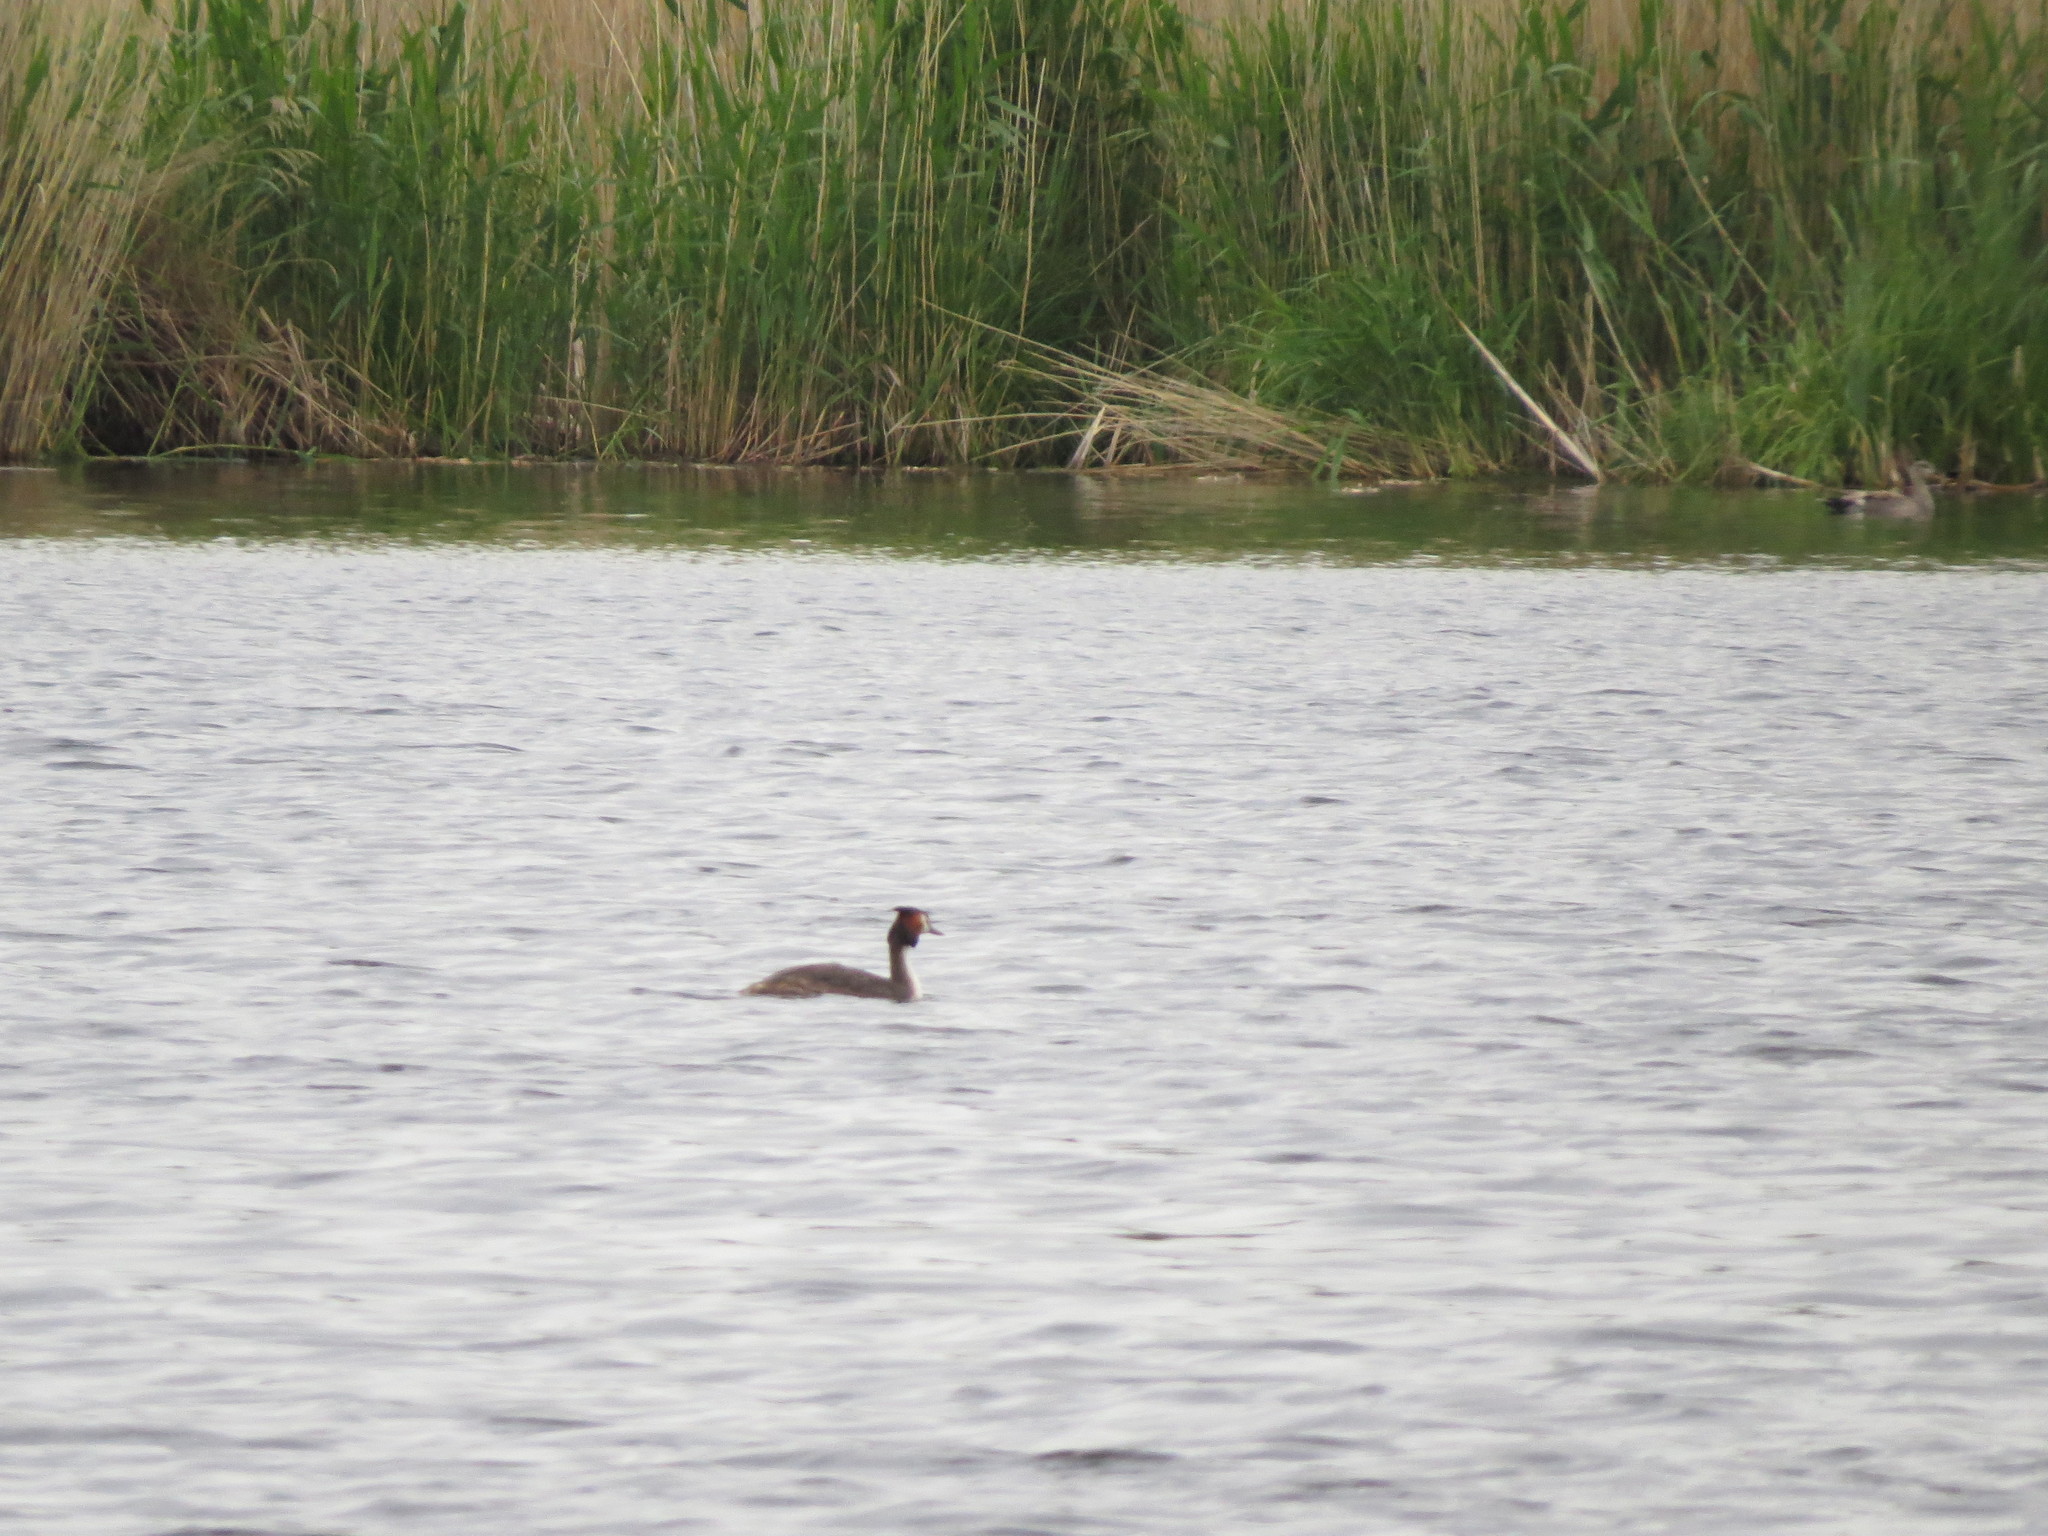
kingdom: Animalia
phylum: Chordata
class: Aves
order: Podicipediformes
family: Podicipedidae
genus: Podiceps
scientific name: Podiceps cristatus
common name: Great crested grebe
